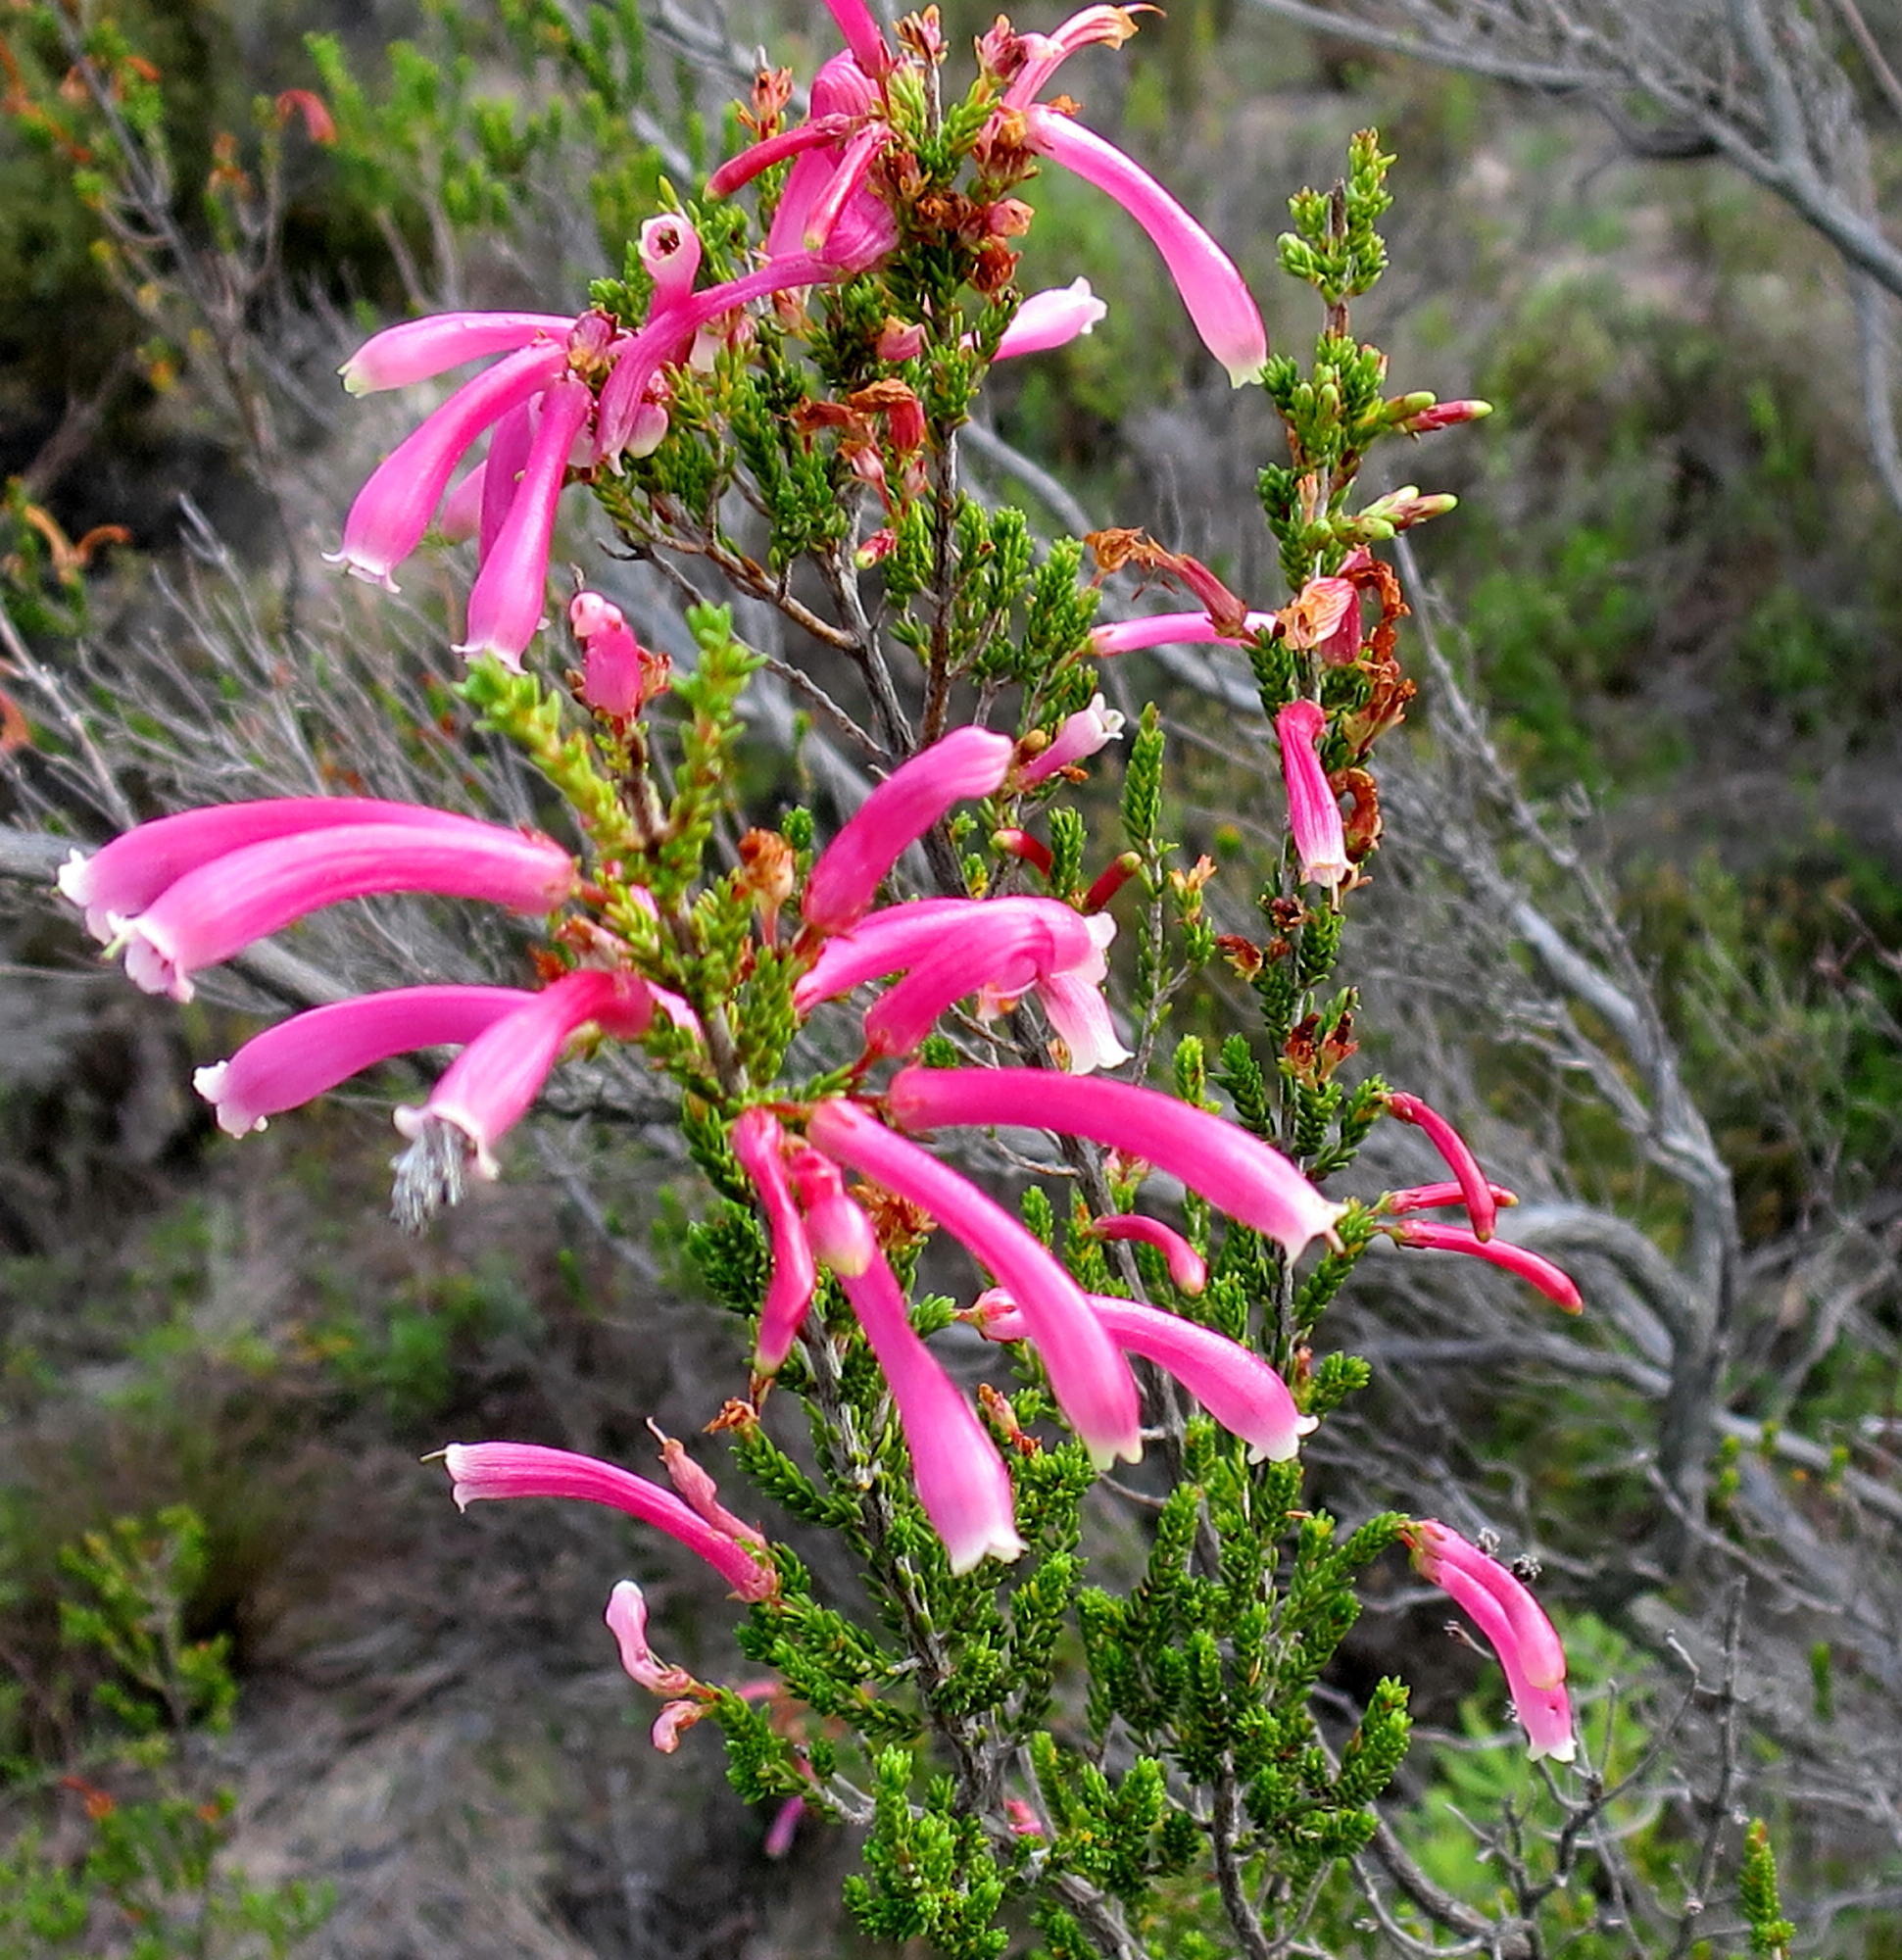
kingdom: Plantae
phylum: Tracheophyta
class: Magnoliopsida
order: Ericales
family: Ericaceae
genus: Erica
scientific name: Erica discolor
